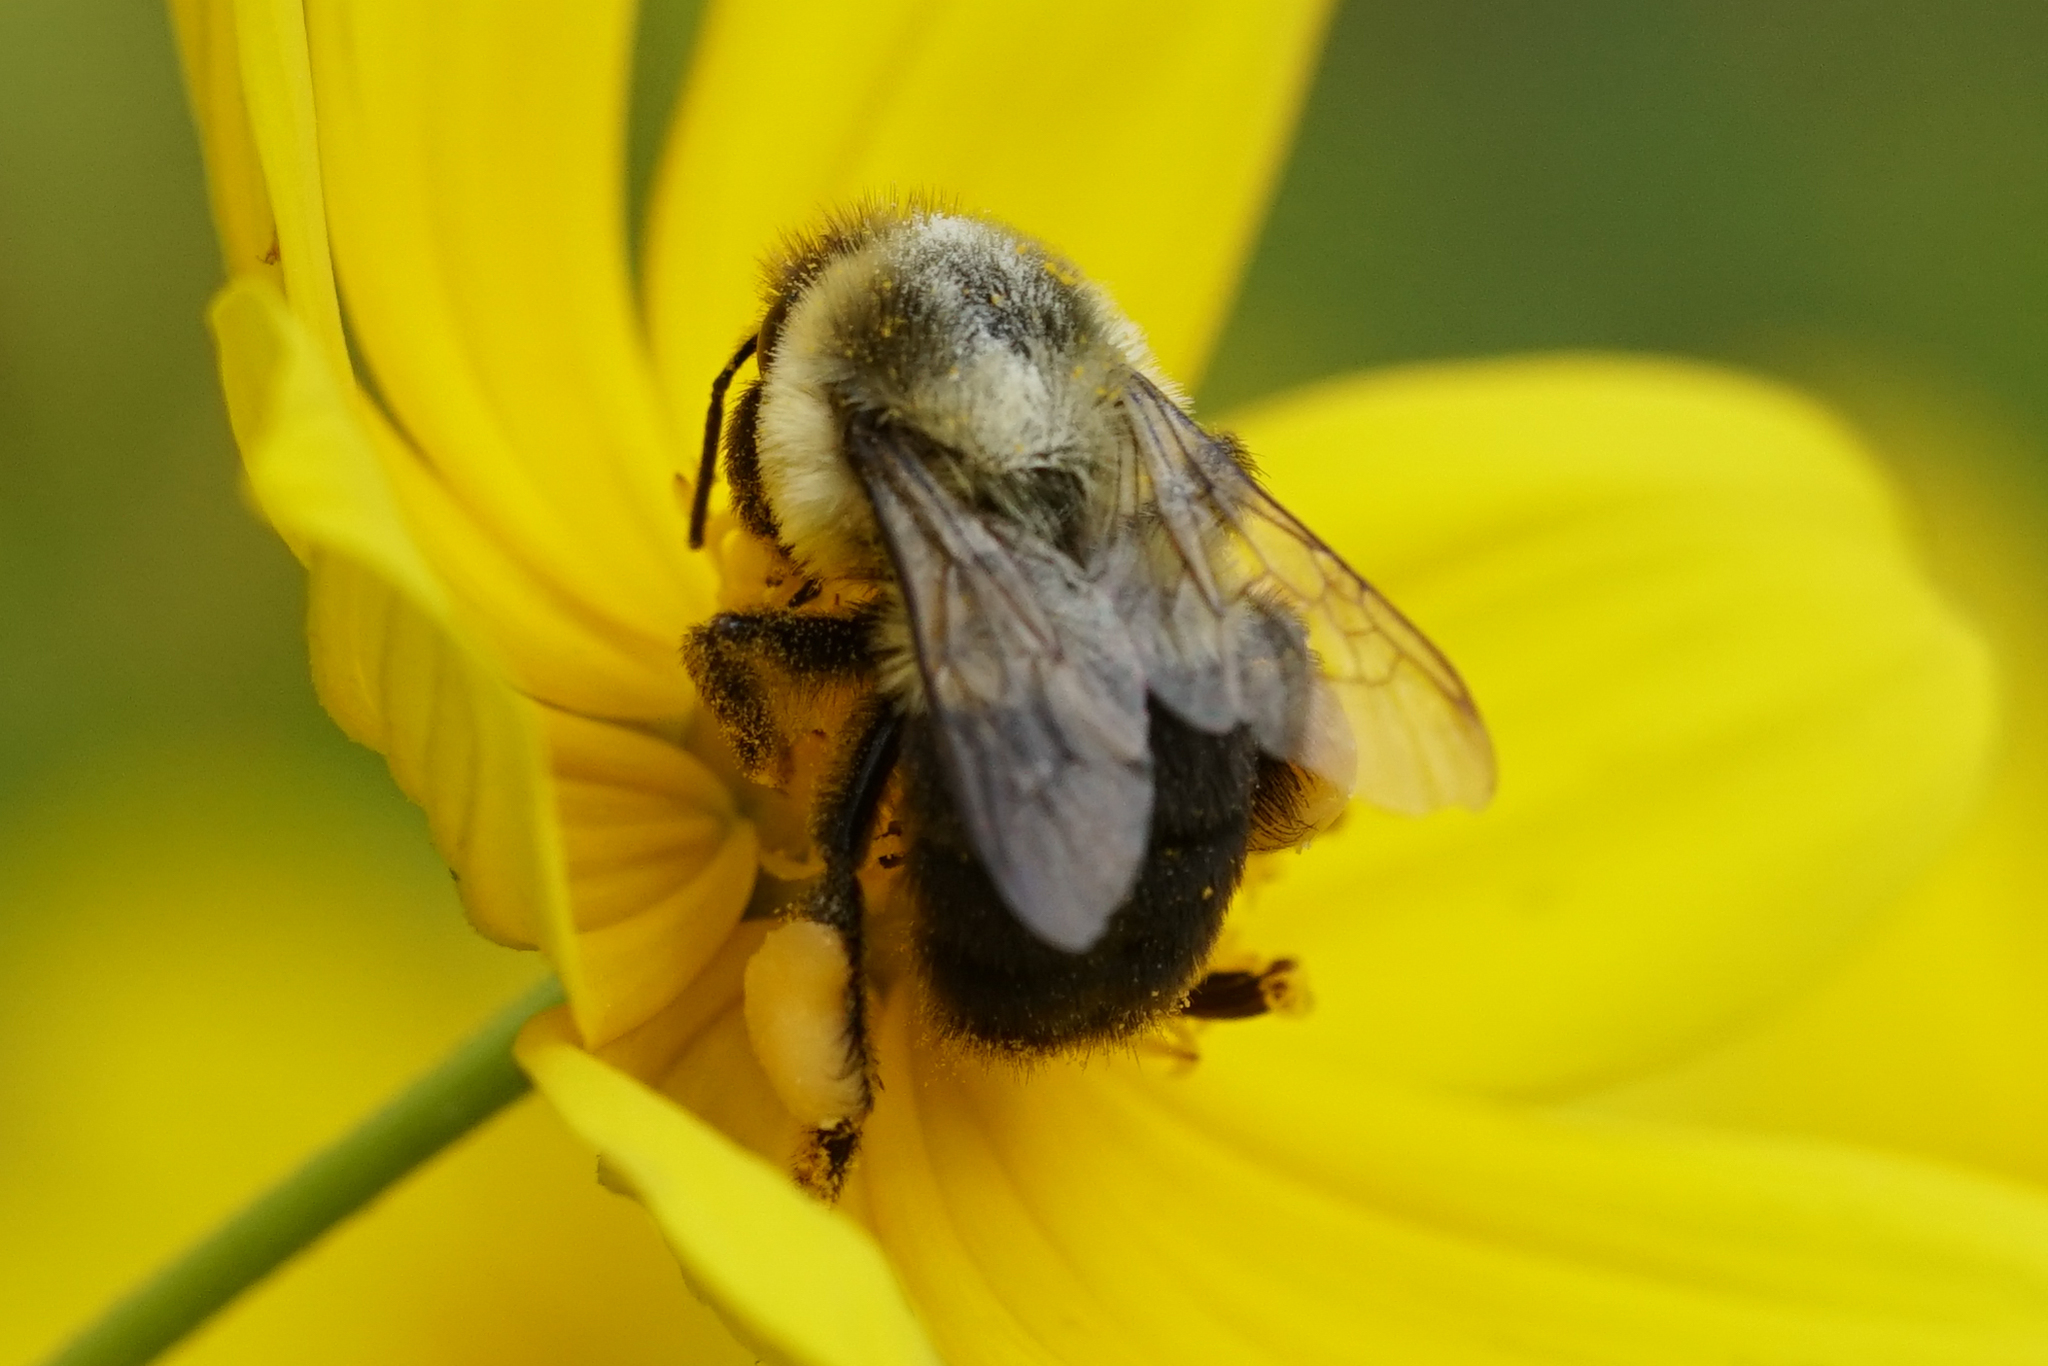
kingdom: Animalia
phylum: Arthropoda
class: Insecta
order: Hymenoptera
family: Apidae
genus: Bombus
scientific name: Bombus impatiens
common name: Common eastern bumble bee
